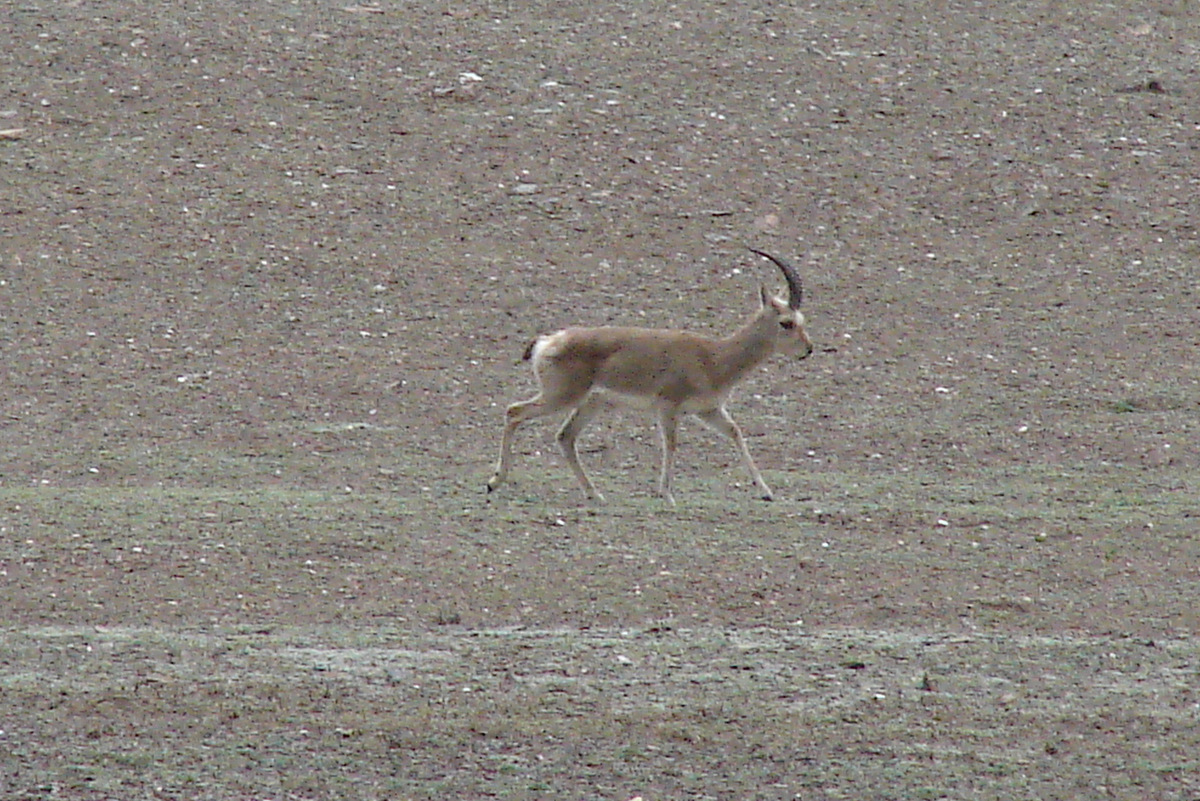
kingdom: Animalia
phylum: Chordata
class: Mammalia
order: Artiodactyla
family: Bovidae
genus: Procapra
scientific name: Procapra picticaudata
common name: Tibetan gazelle
